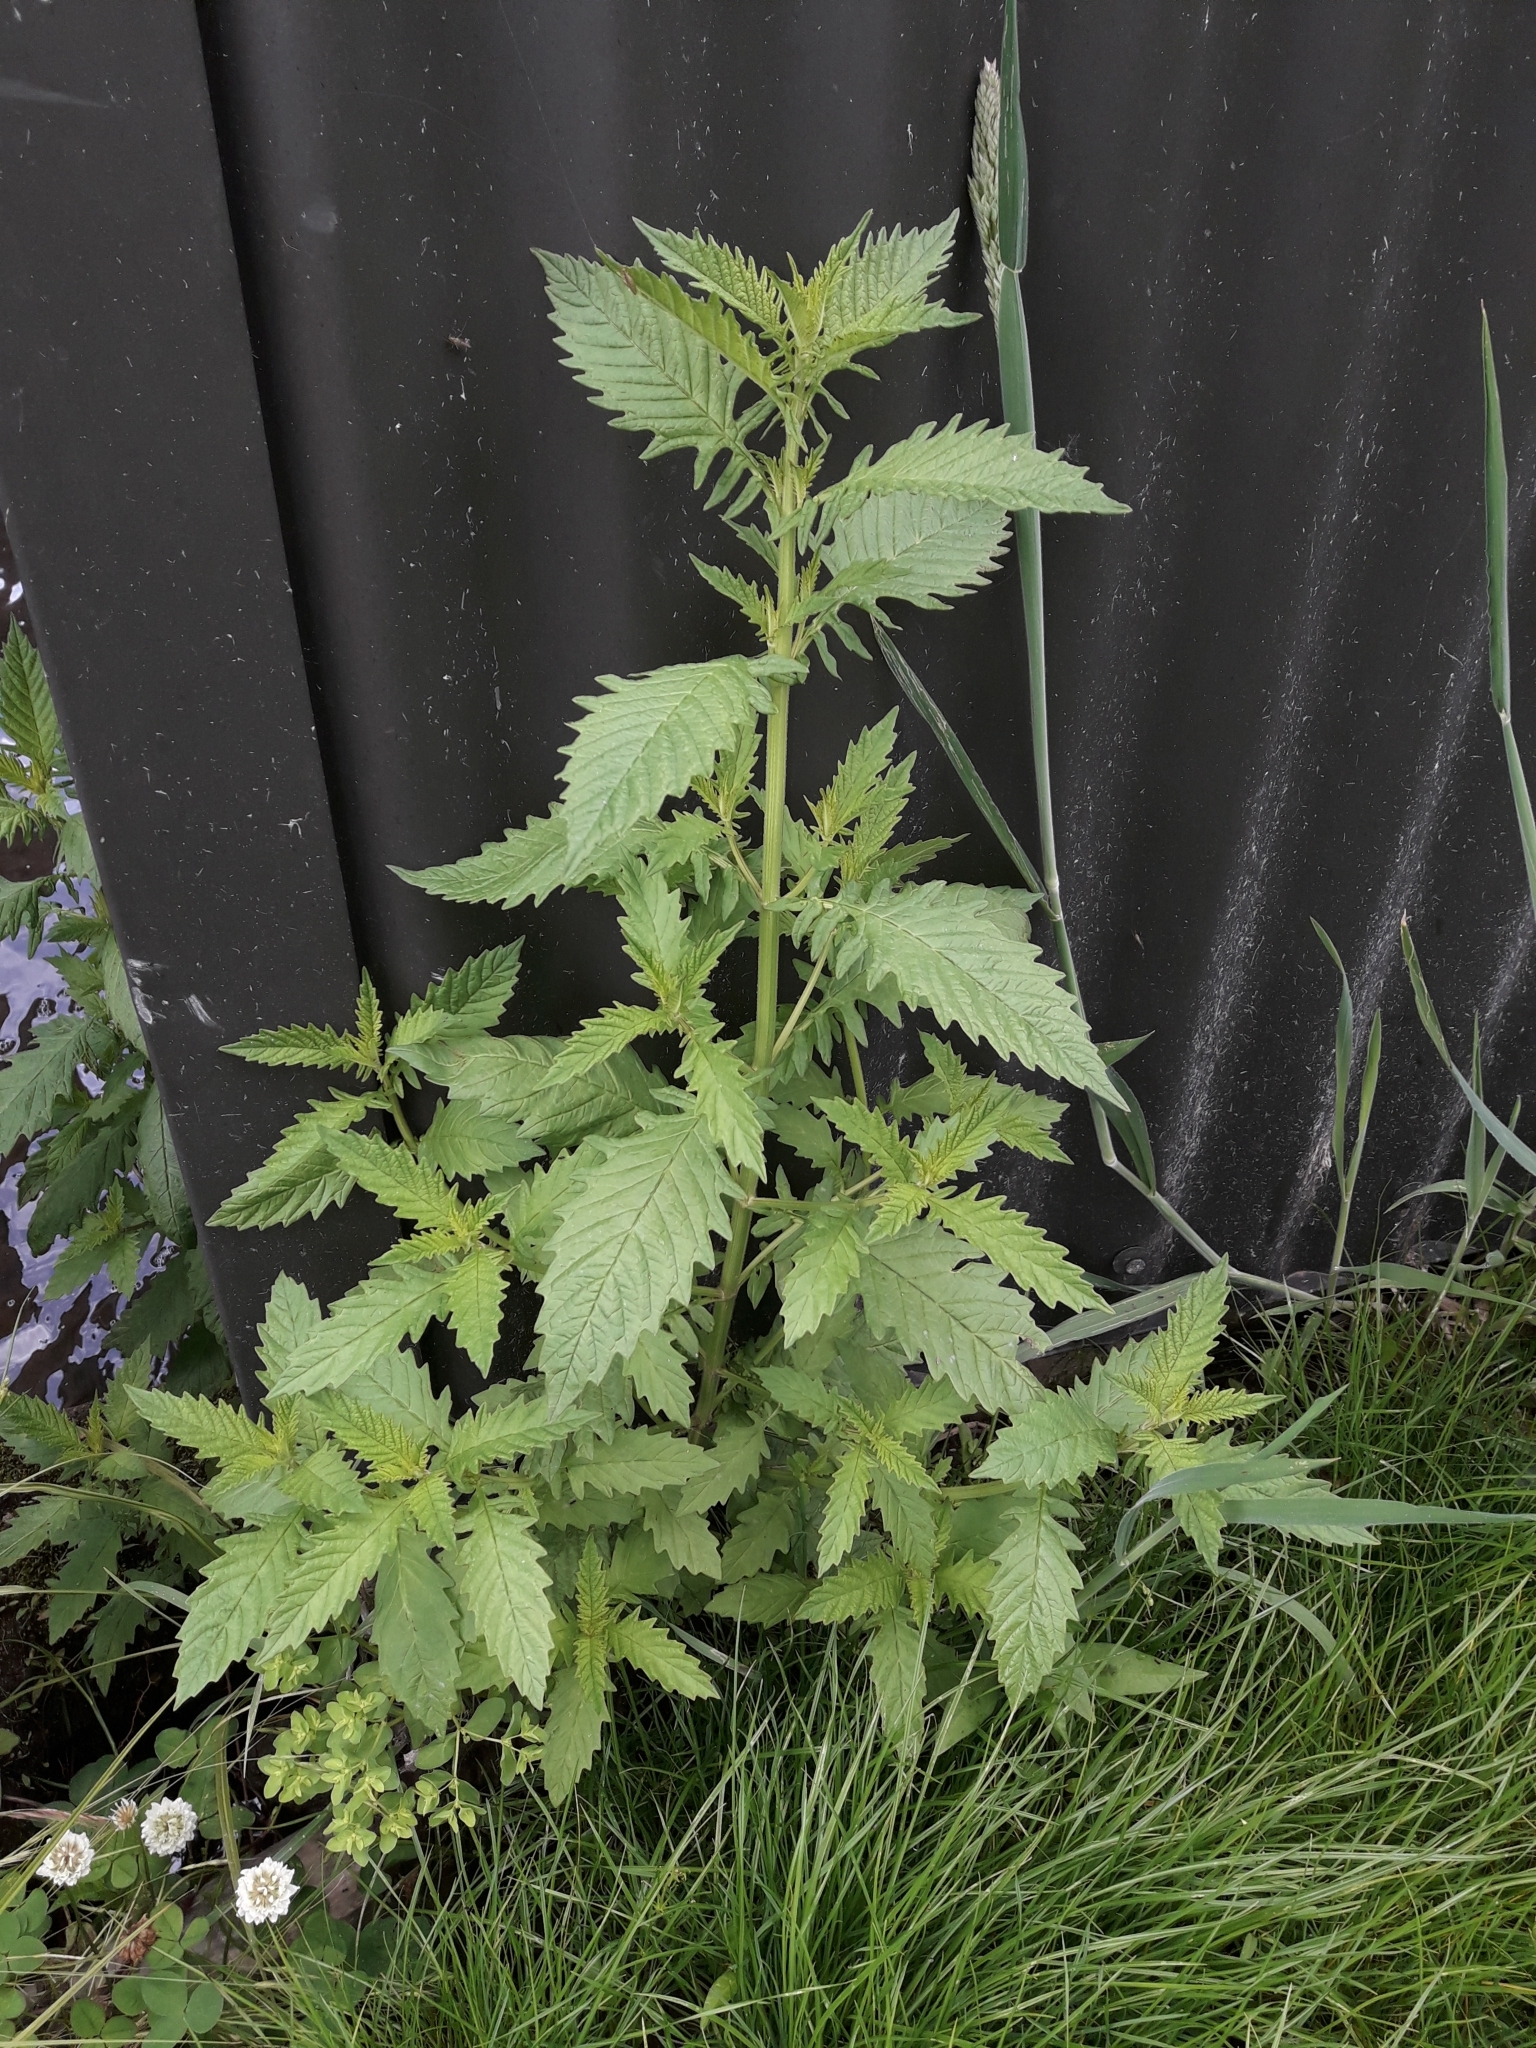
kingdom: Plantae
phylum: Tracheophyta
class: Magnoliopsida
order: Lamiales
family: Lamiaceae
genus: Lycopus
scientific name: Lycopus europaeus
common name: European bugleweed
